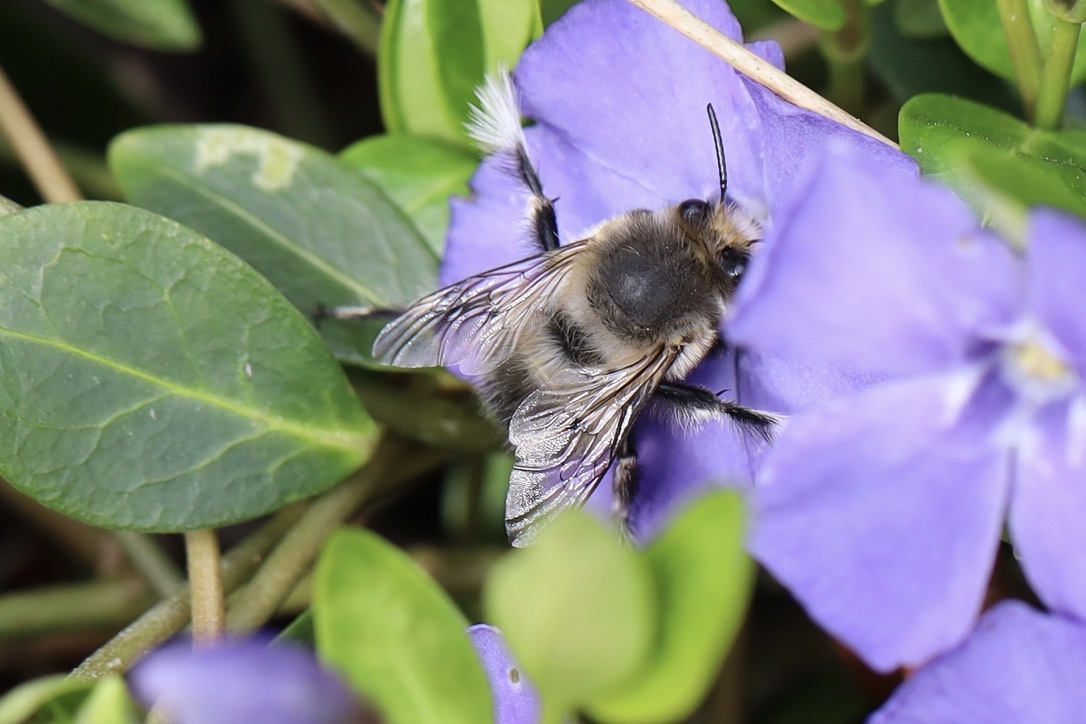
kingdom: Animalia
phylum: Arthropoda
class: Insecta
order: Hymenoptera
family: Apidae
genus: Anthophora
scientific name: Anthophora pacifica
